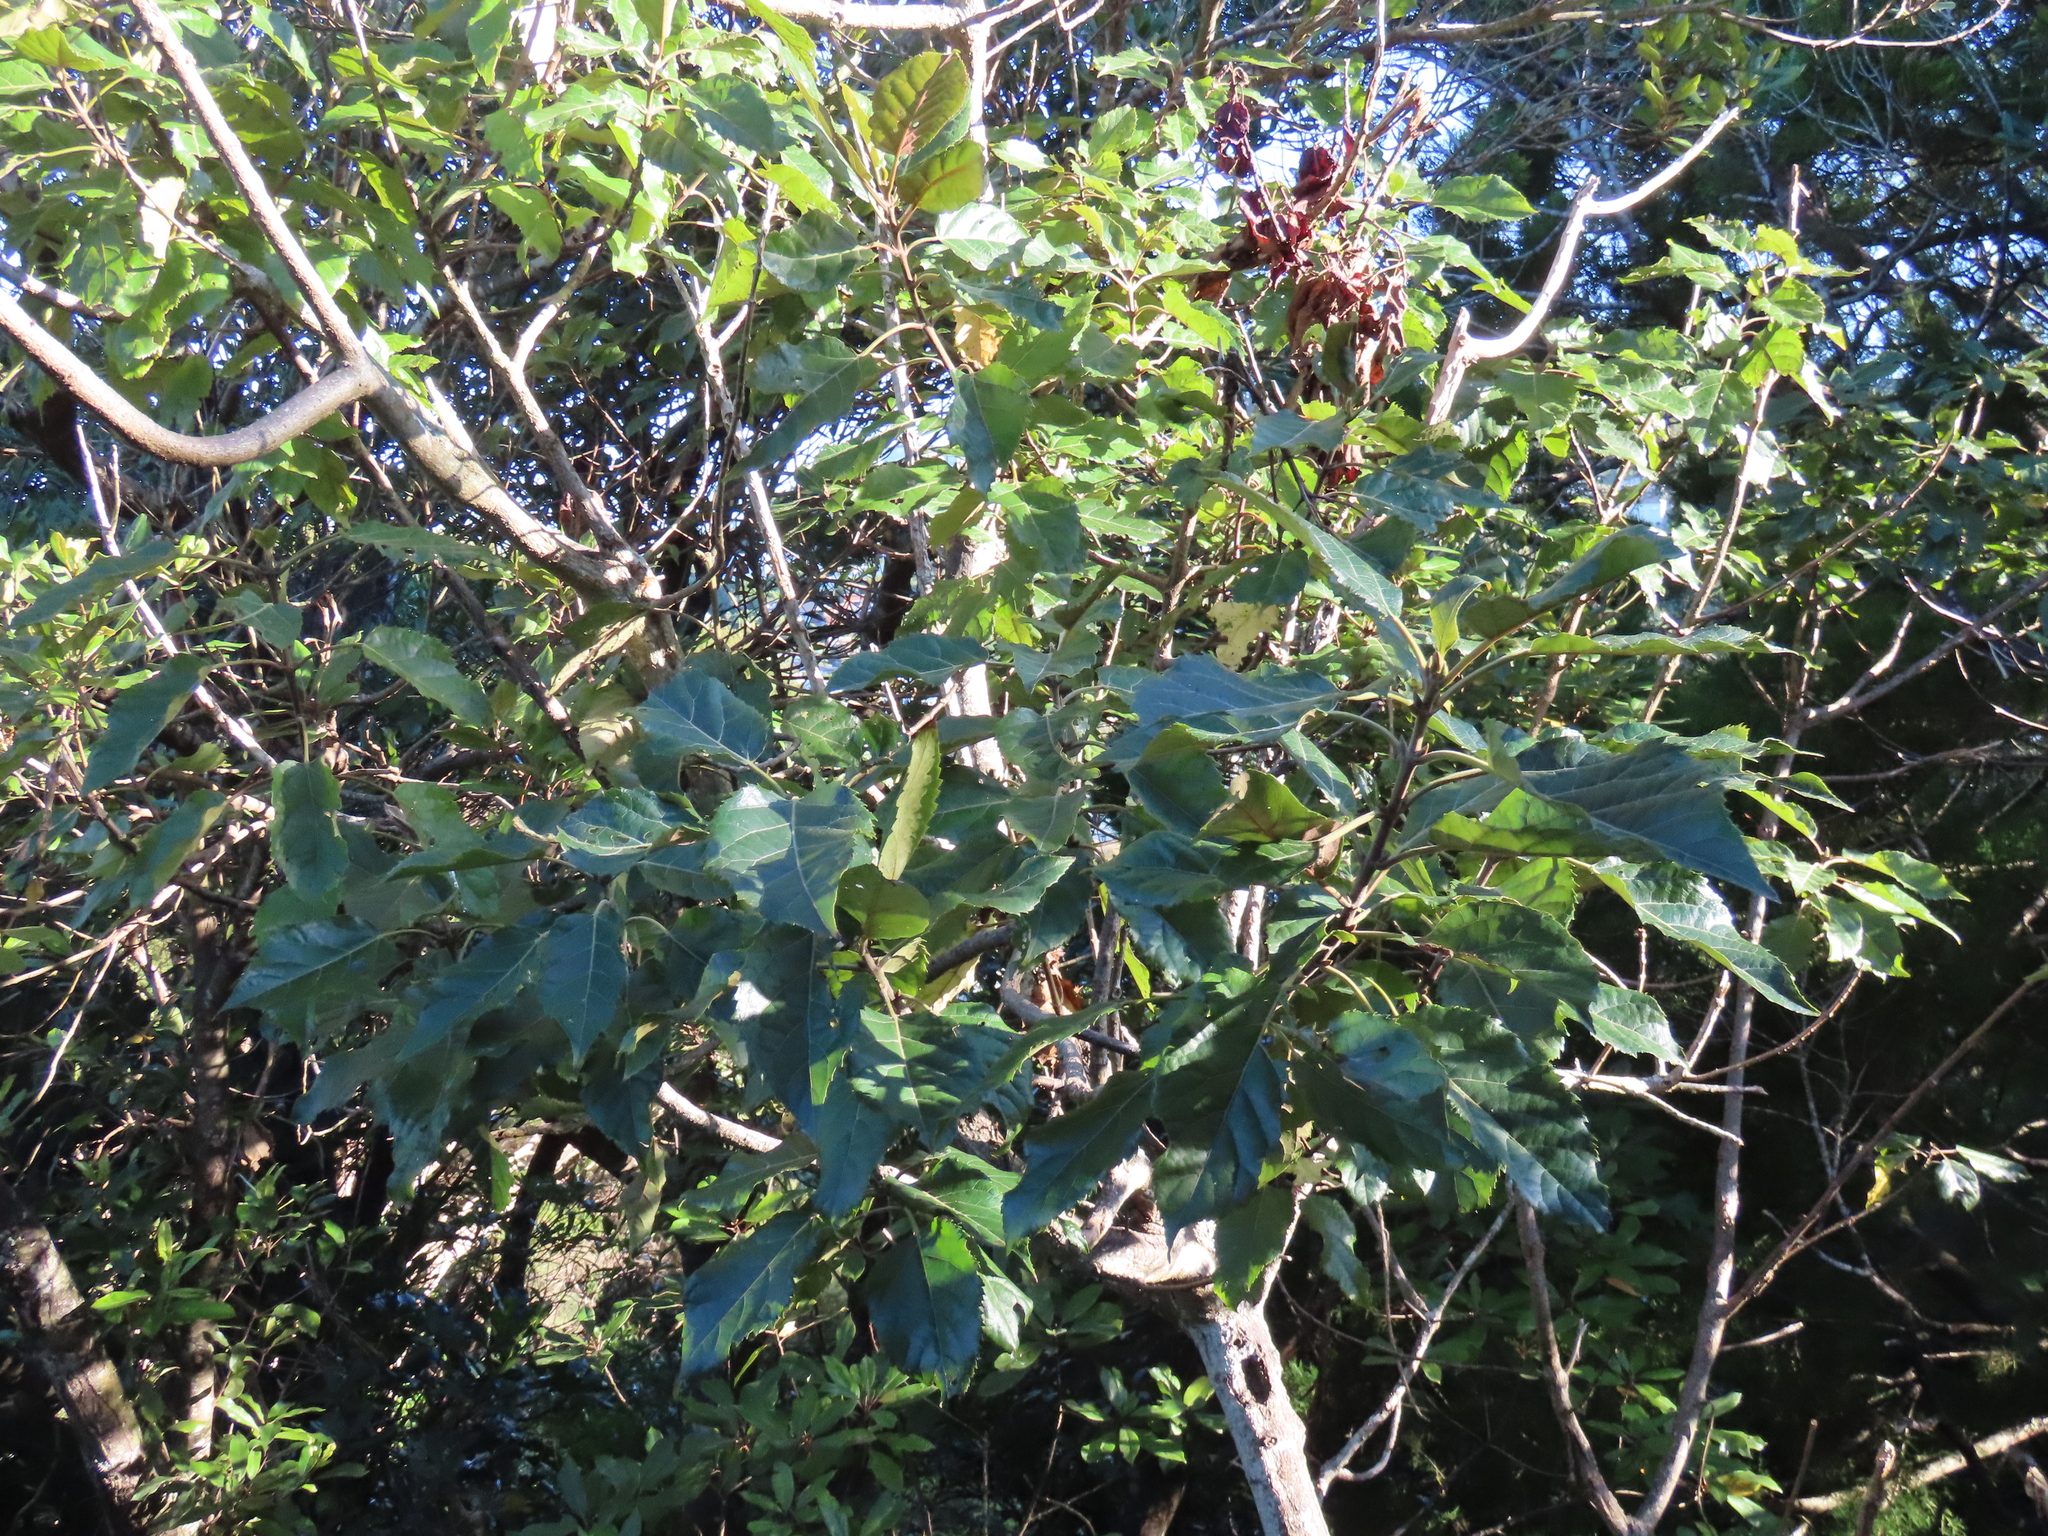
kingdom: Plantae
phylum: Tracheophyta
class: Magnoliopsida
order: Oxalidales
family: Elaeocarpaceae
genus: Aristotelia
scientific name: Aristotelia serrata
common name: New zealand wineberry
